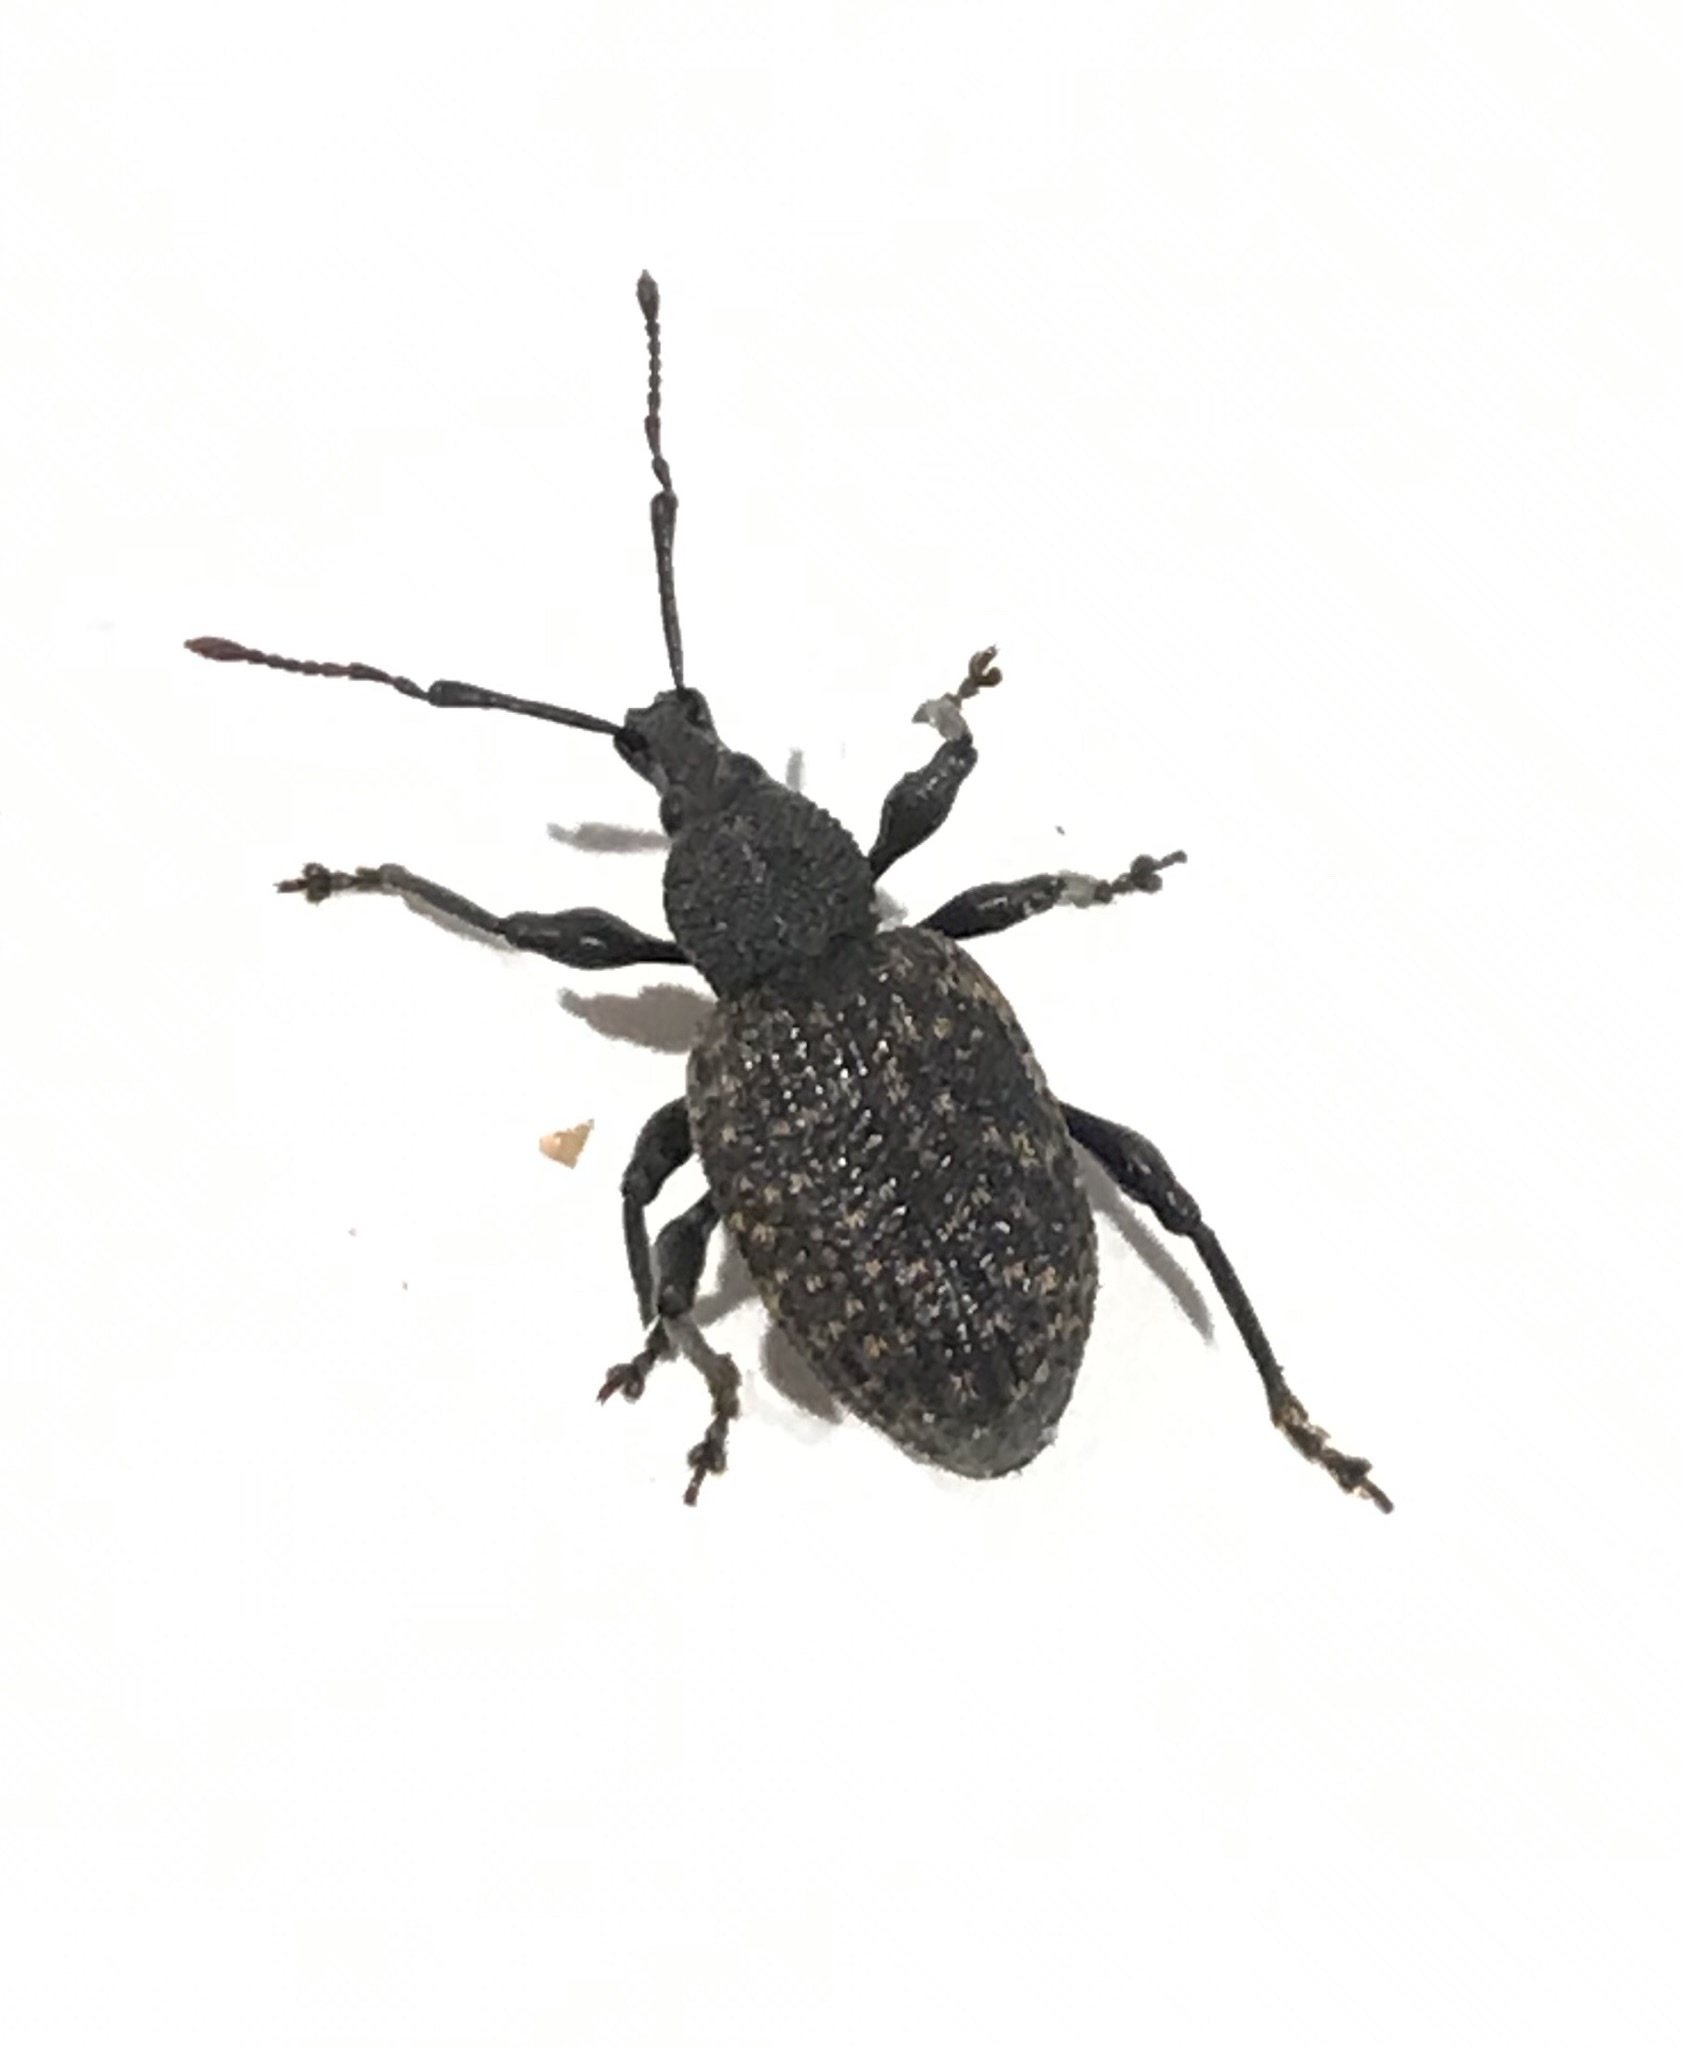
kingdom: Animalia
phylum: Arthropoda
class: Insecta
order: Coleoptera
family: Curculionidae
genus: Otiorhynchus
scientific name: Otiorhynchus sulcatus
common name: Black vine weevil
